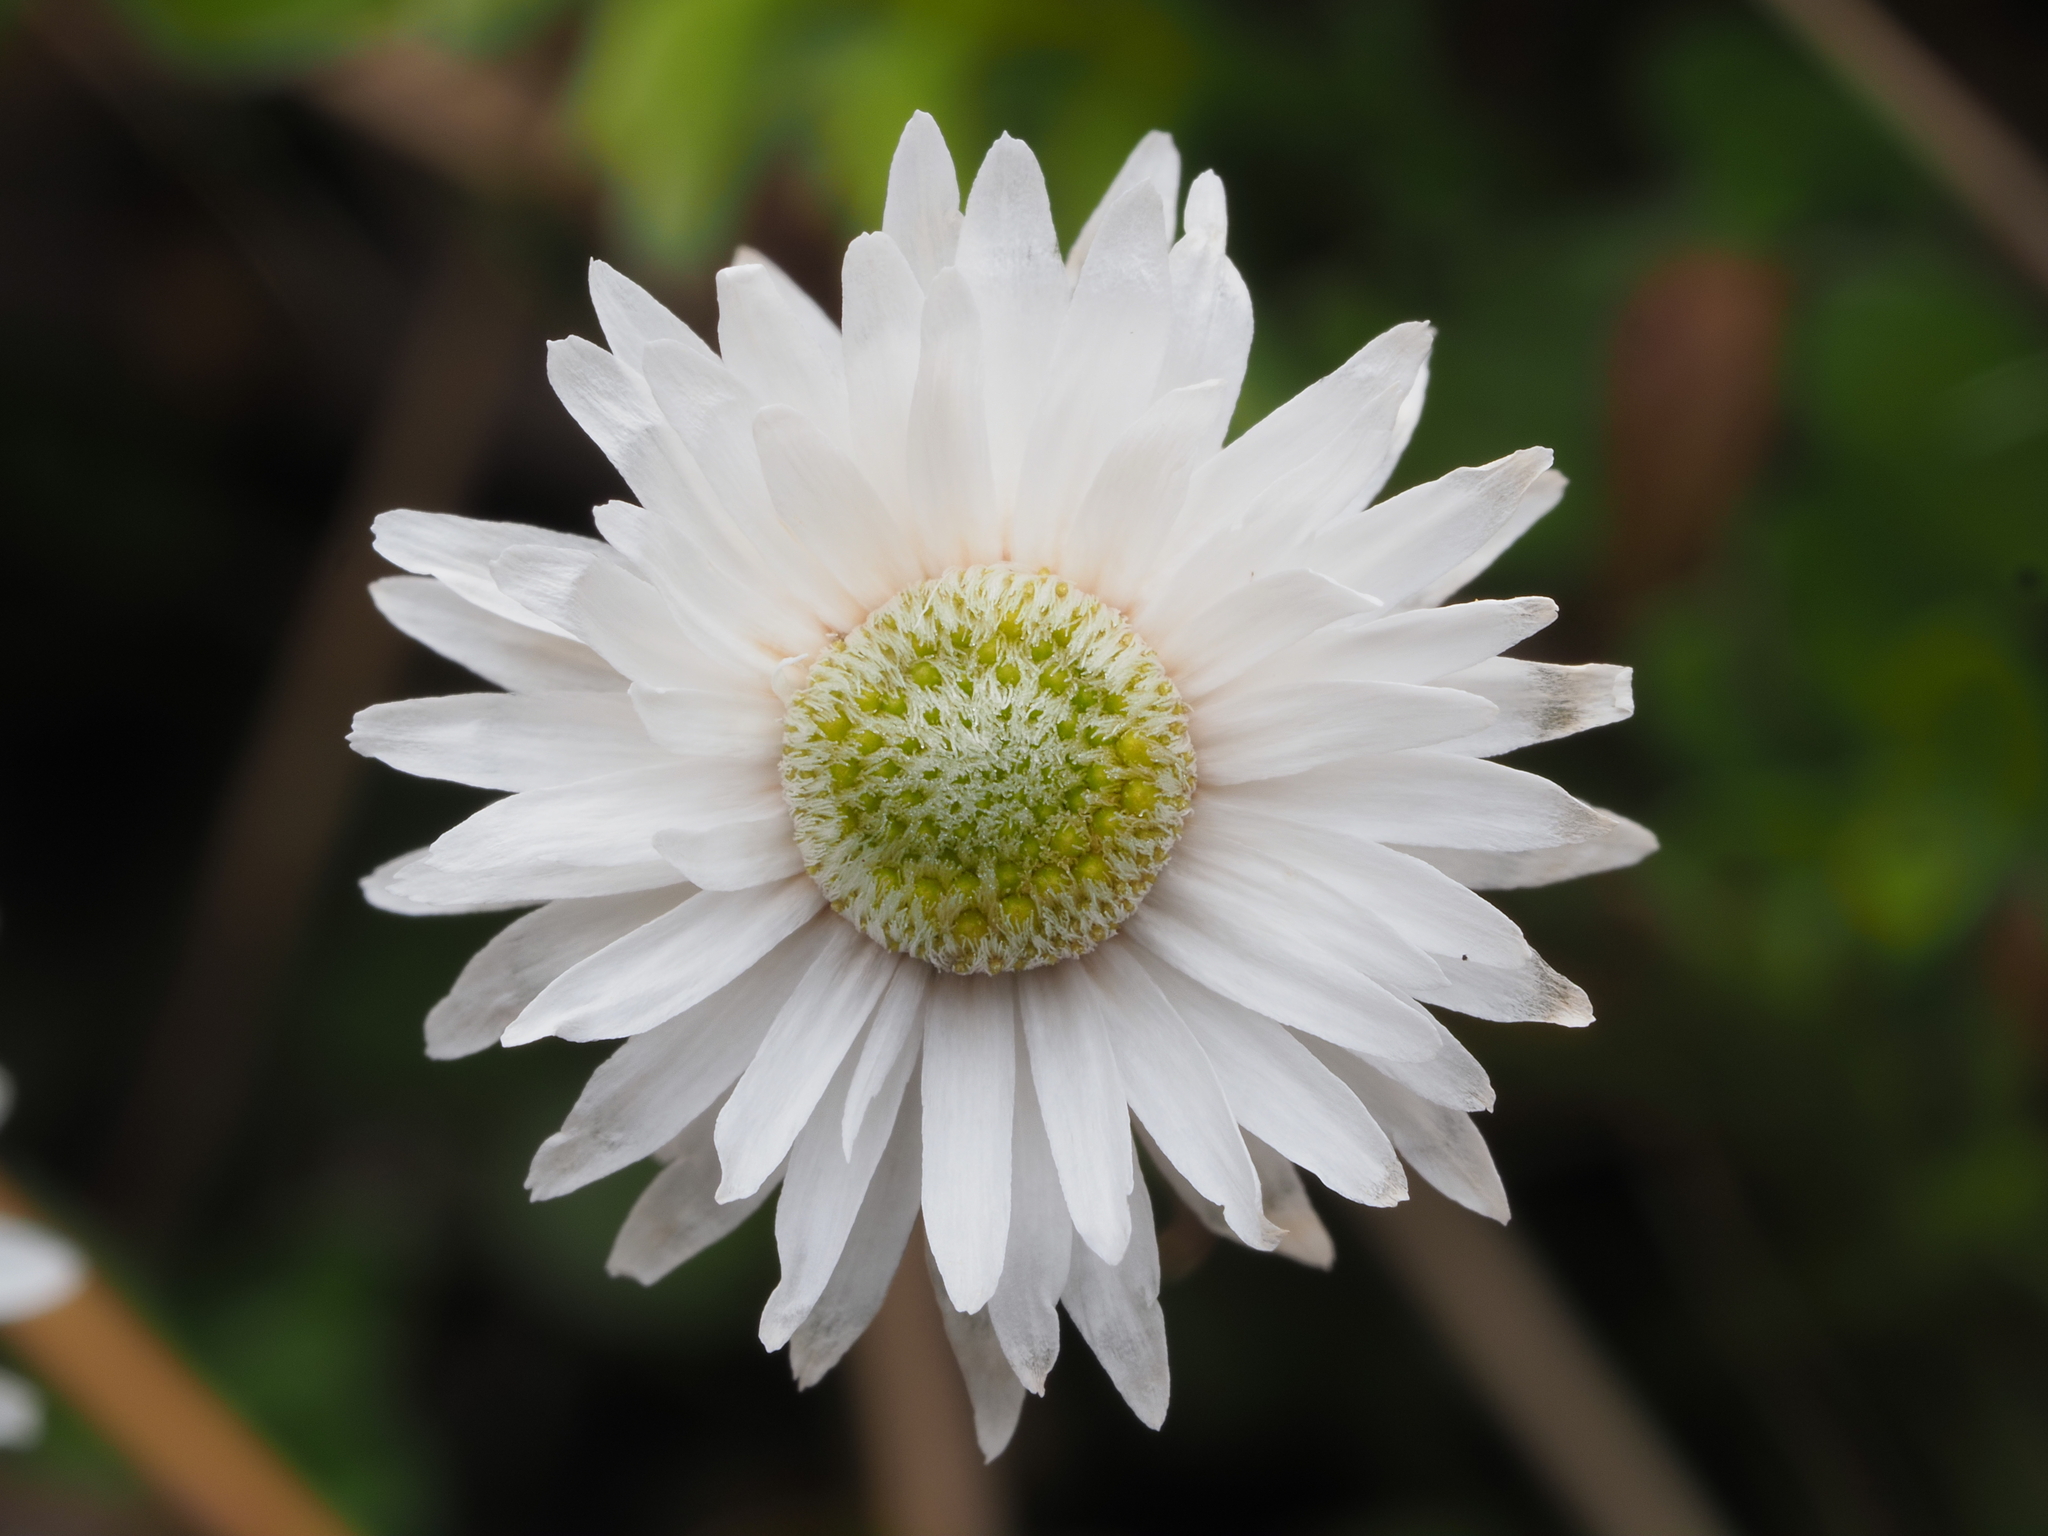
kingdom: Plantae
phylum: Tracheophyta
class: Magnoliopsida
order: Asterales
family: Asteraceae
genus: Anaphalioides
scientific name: Anaphalioides bellidioides
